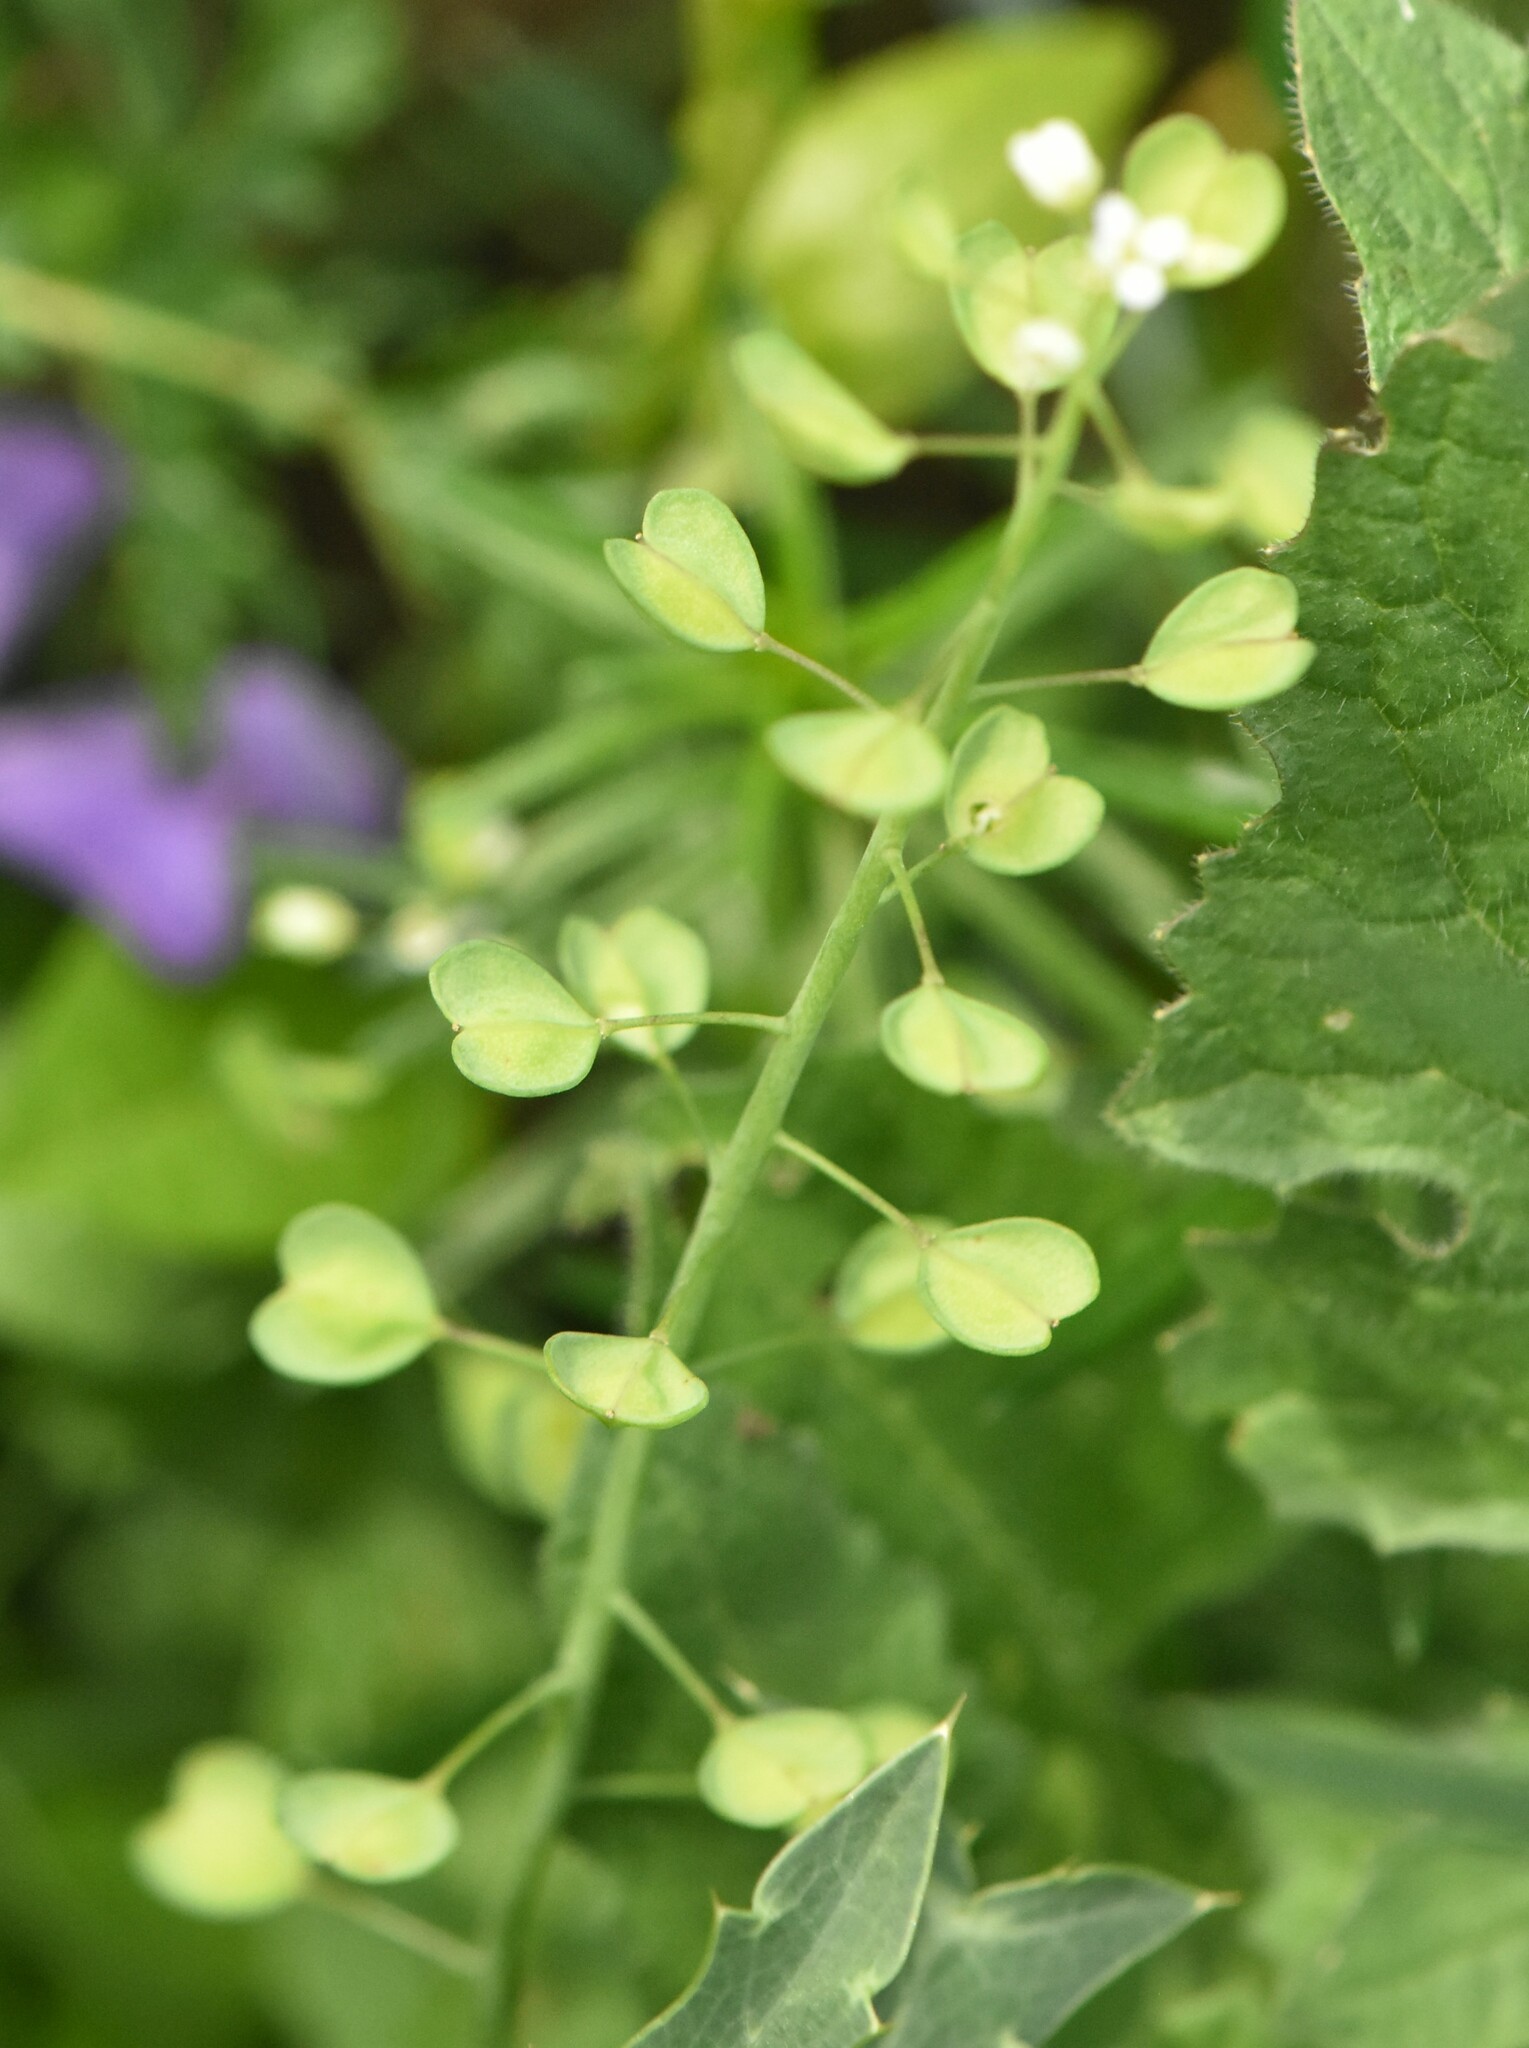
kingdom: Plantae
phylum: Tracheophyta
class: Magnoliopsida
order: Brassicales
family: Brassicaceae
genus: Noccaea
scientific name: Noccaea perfoliata
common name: Perfoliate pennycress
